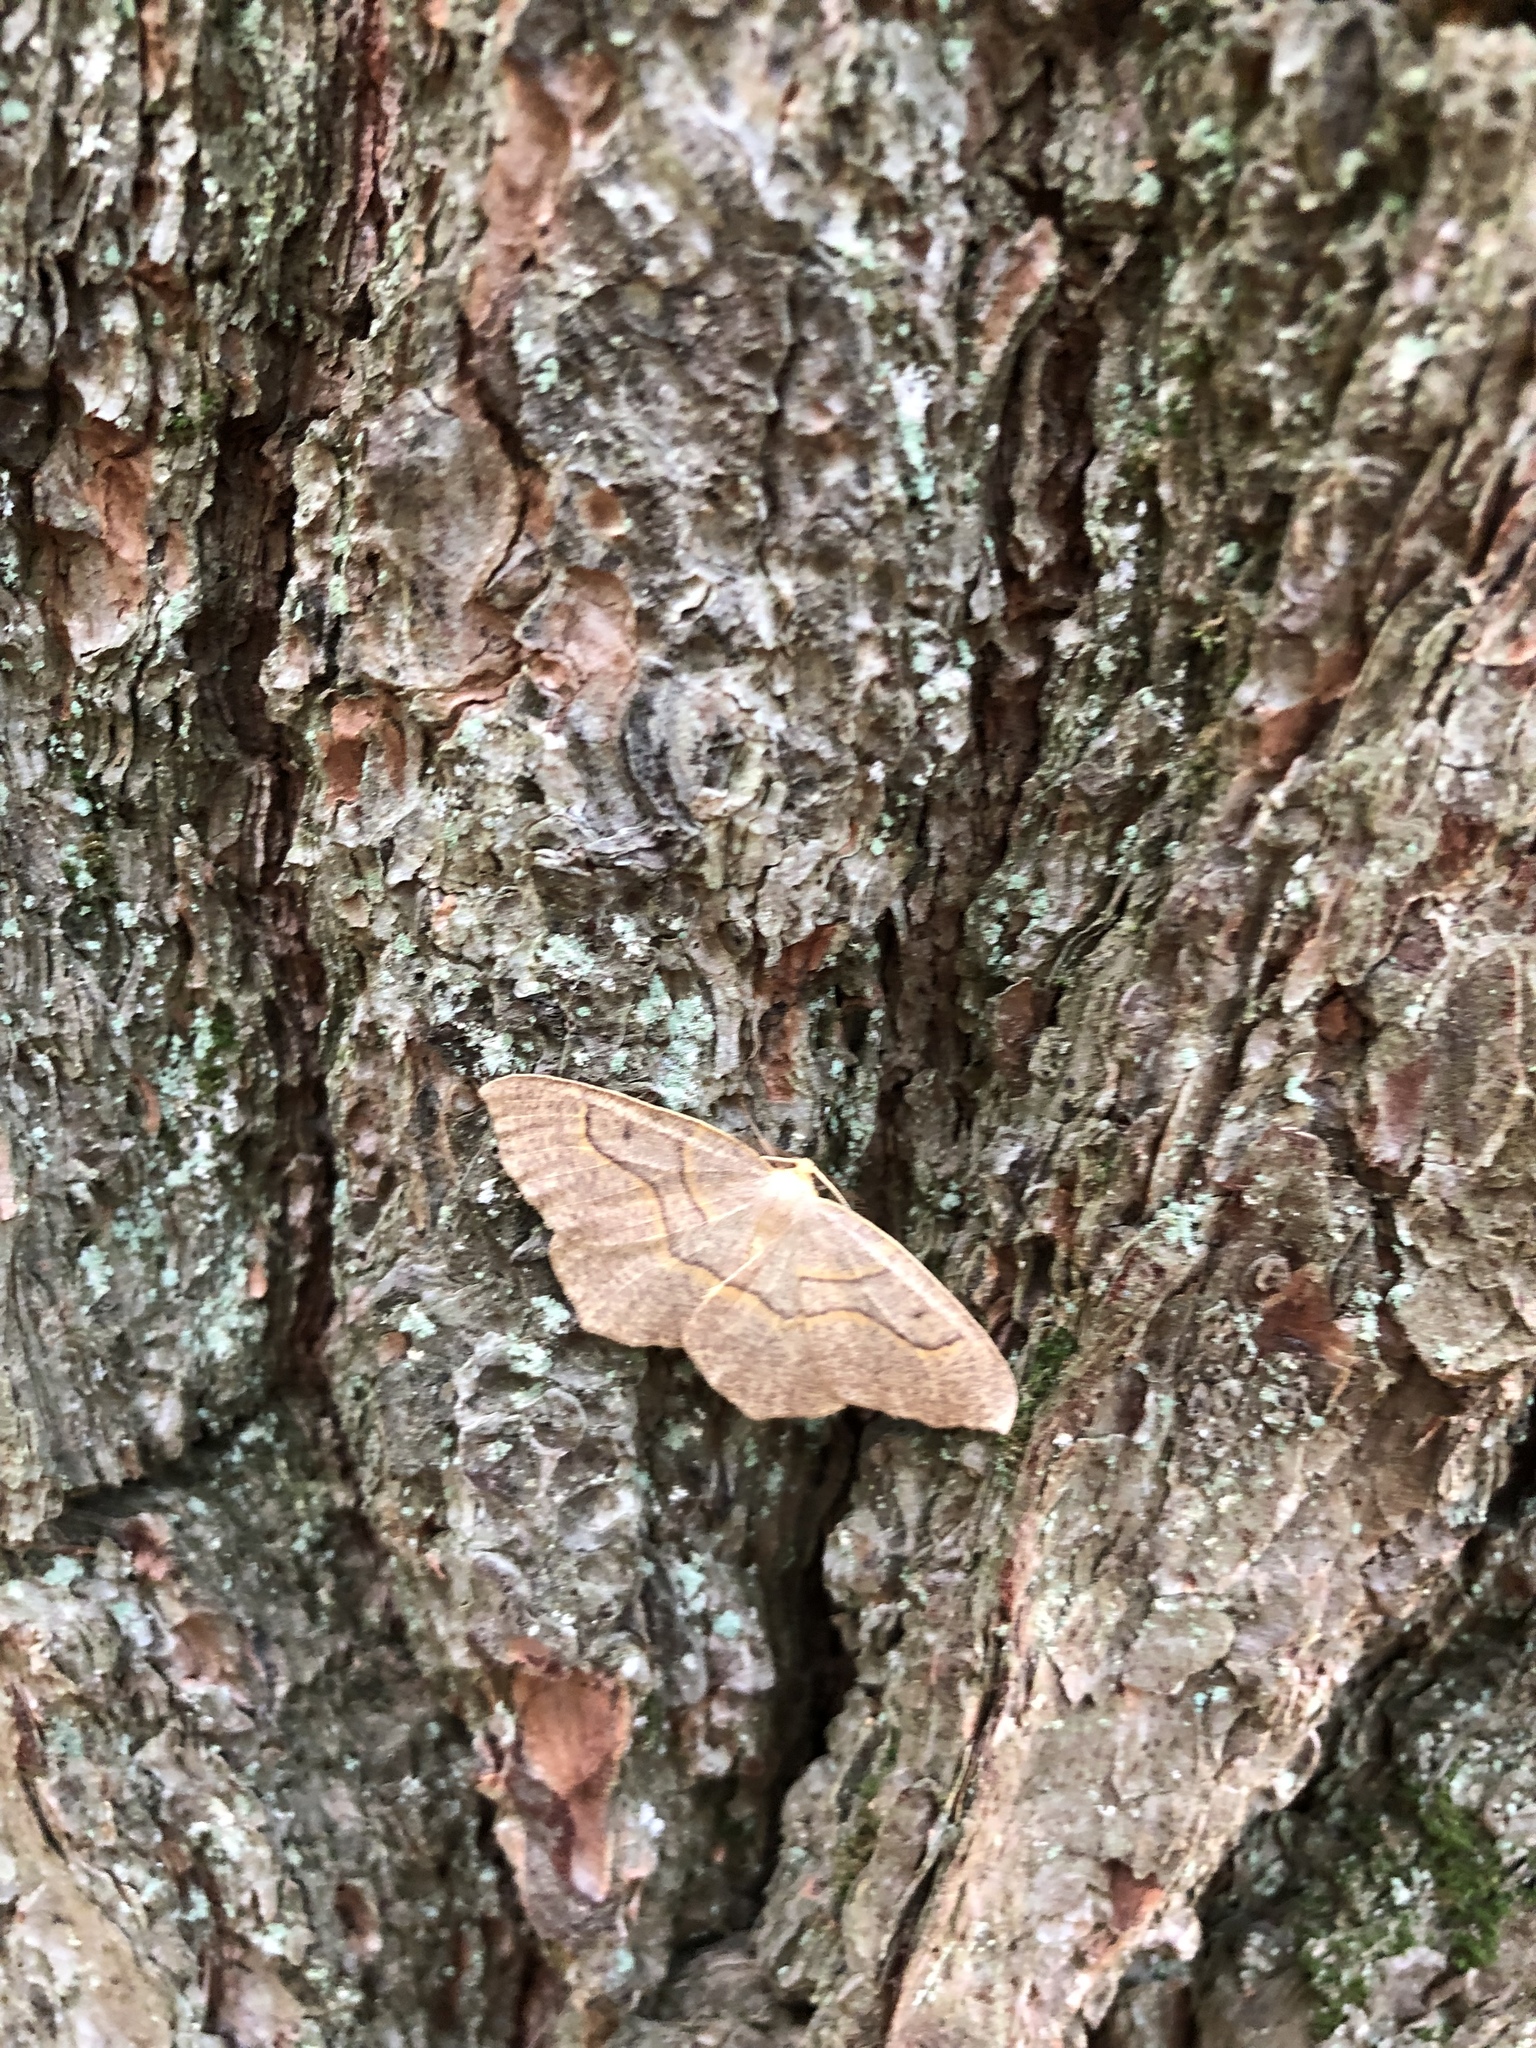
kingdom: Animalia
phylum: Arthropoda
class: Insecta
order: Lepidoptera
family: Geometridae
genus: Lambdina
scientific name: Lambdina fiscellaria
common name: Hemlock looper
